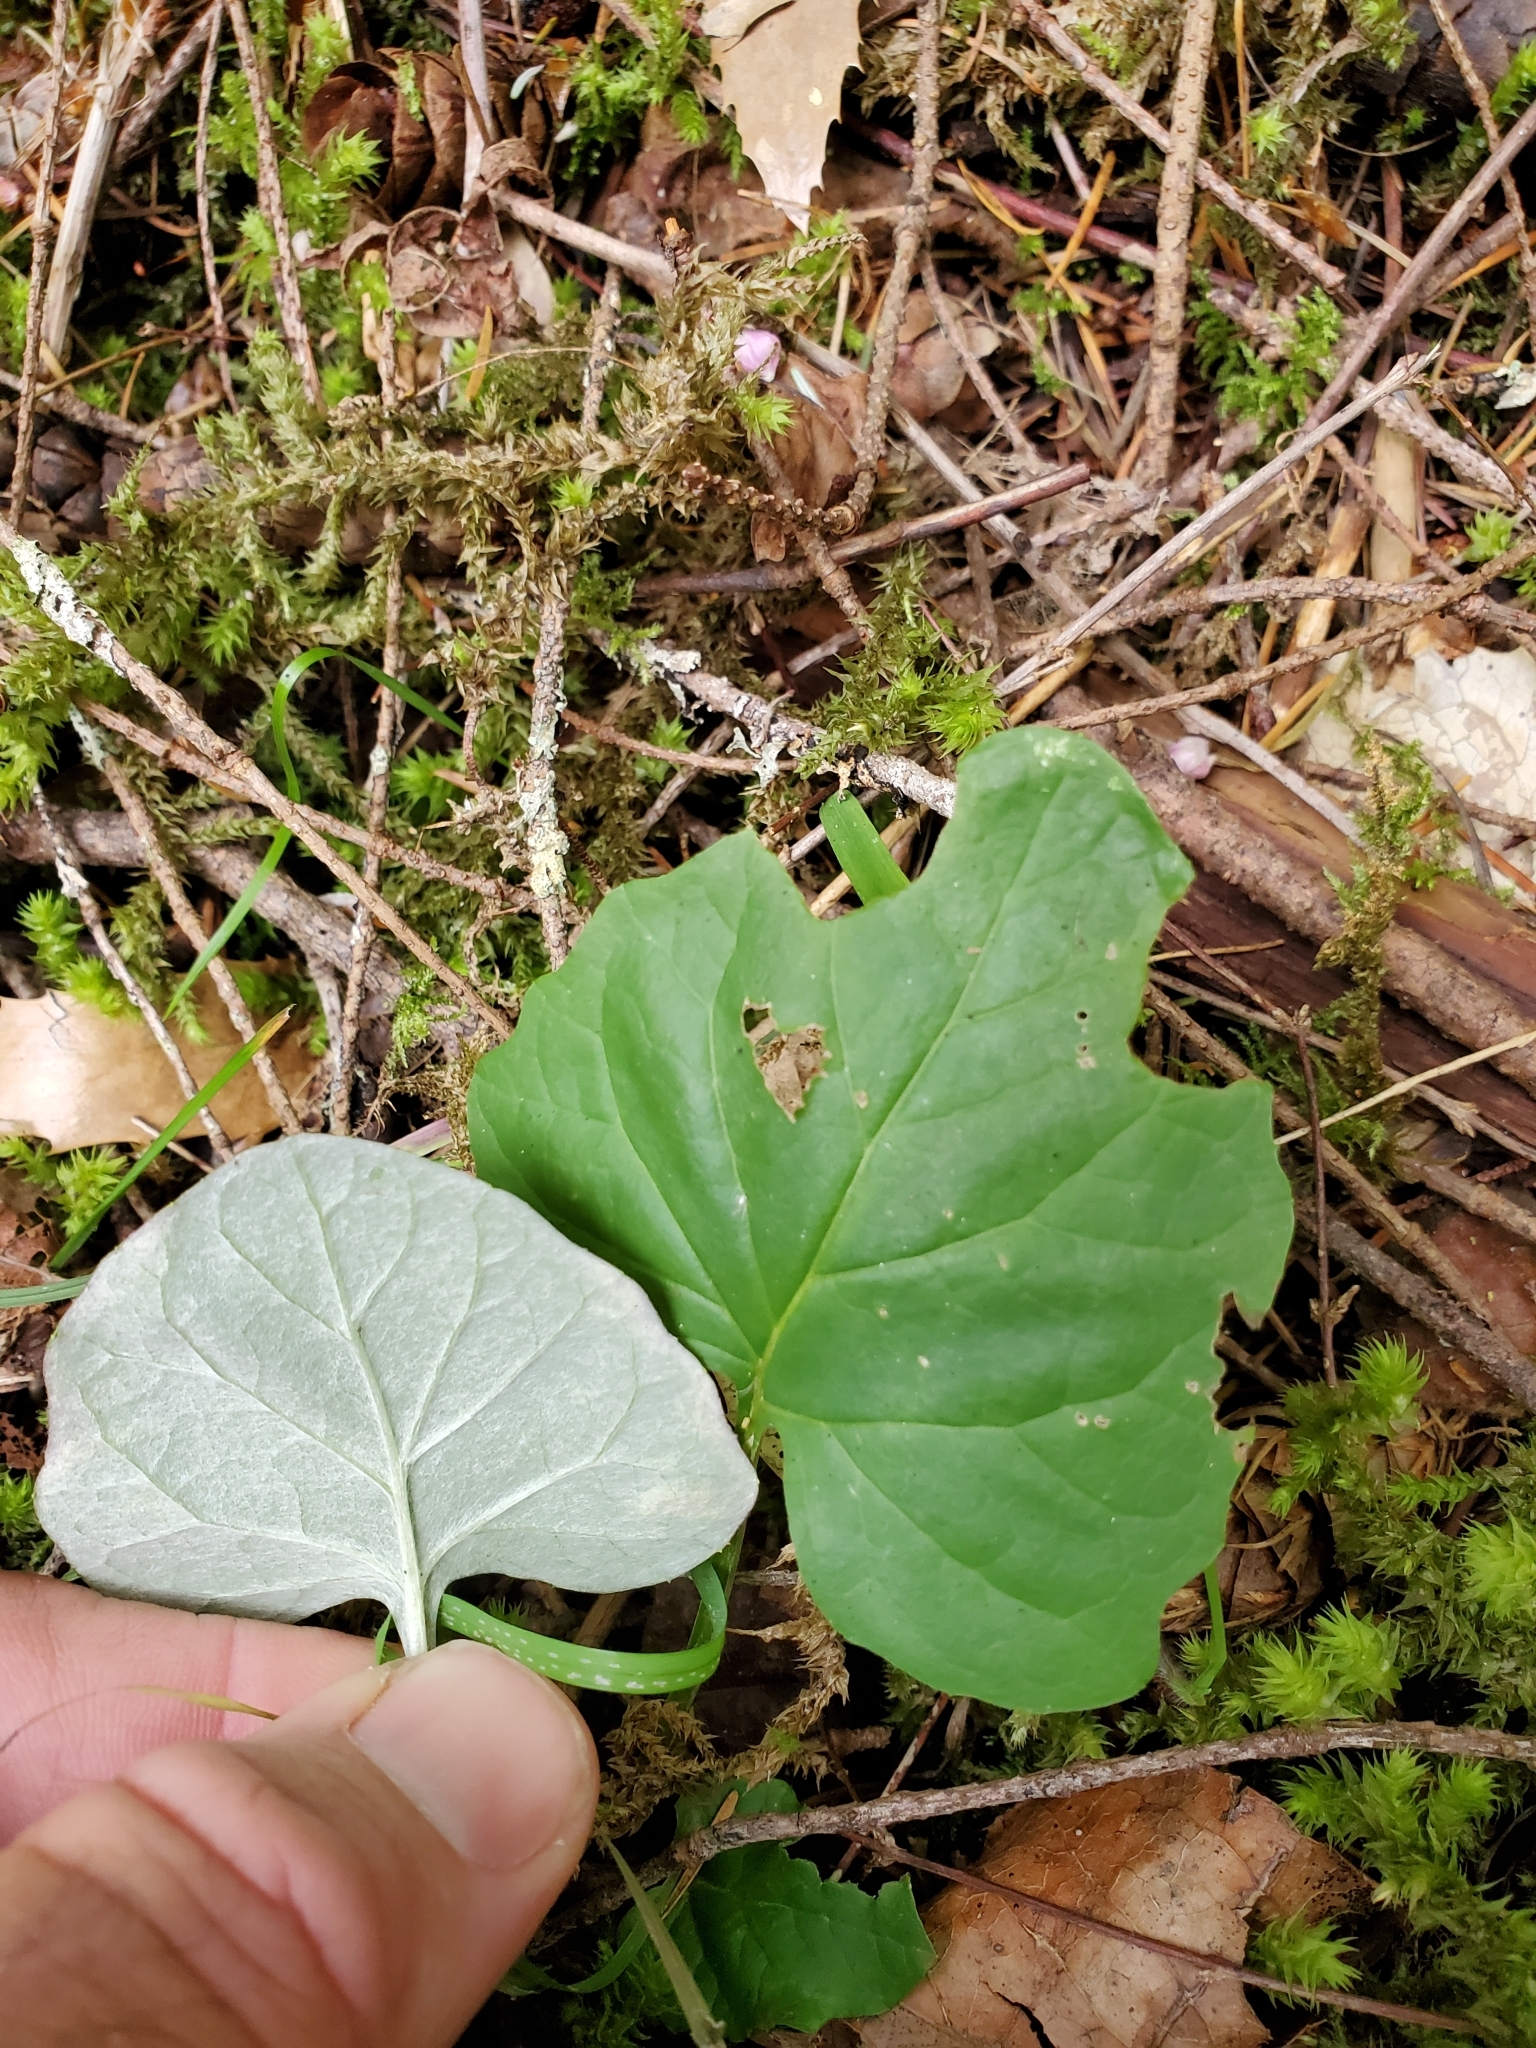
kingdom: Plantae
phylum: Tracheophyta
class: Magnoliopsida
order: Asterales
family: Asteraceae
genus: Adenocaulon
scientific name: Adenocaulon bicolor
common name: Trailplant
